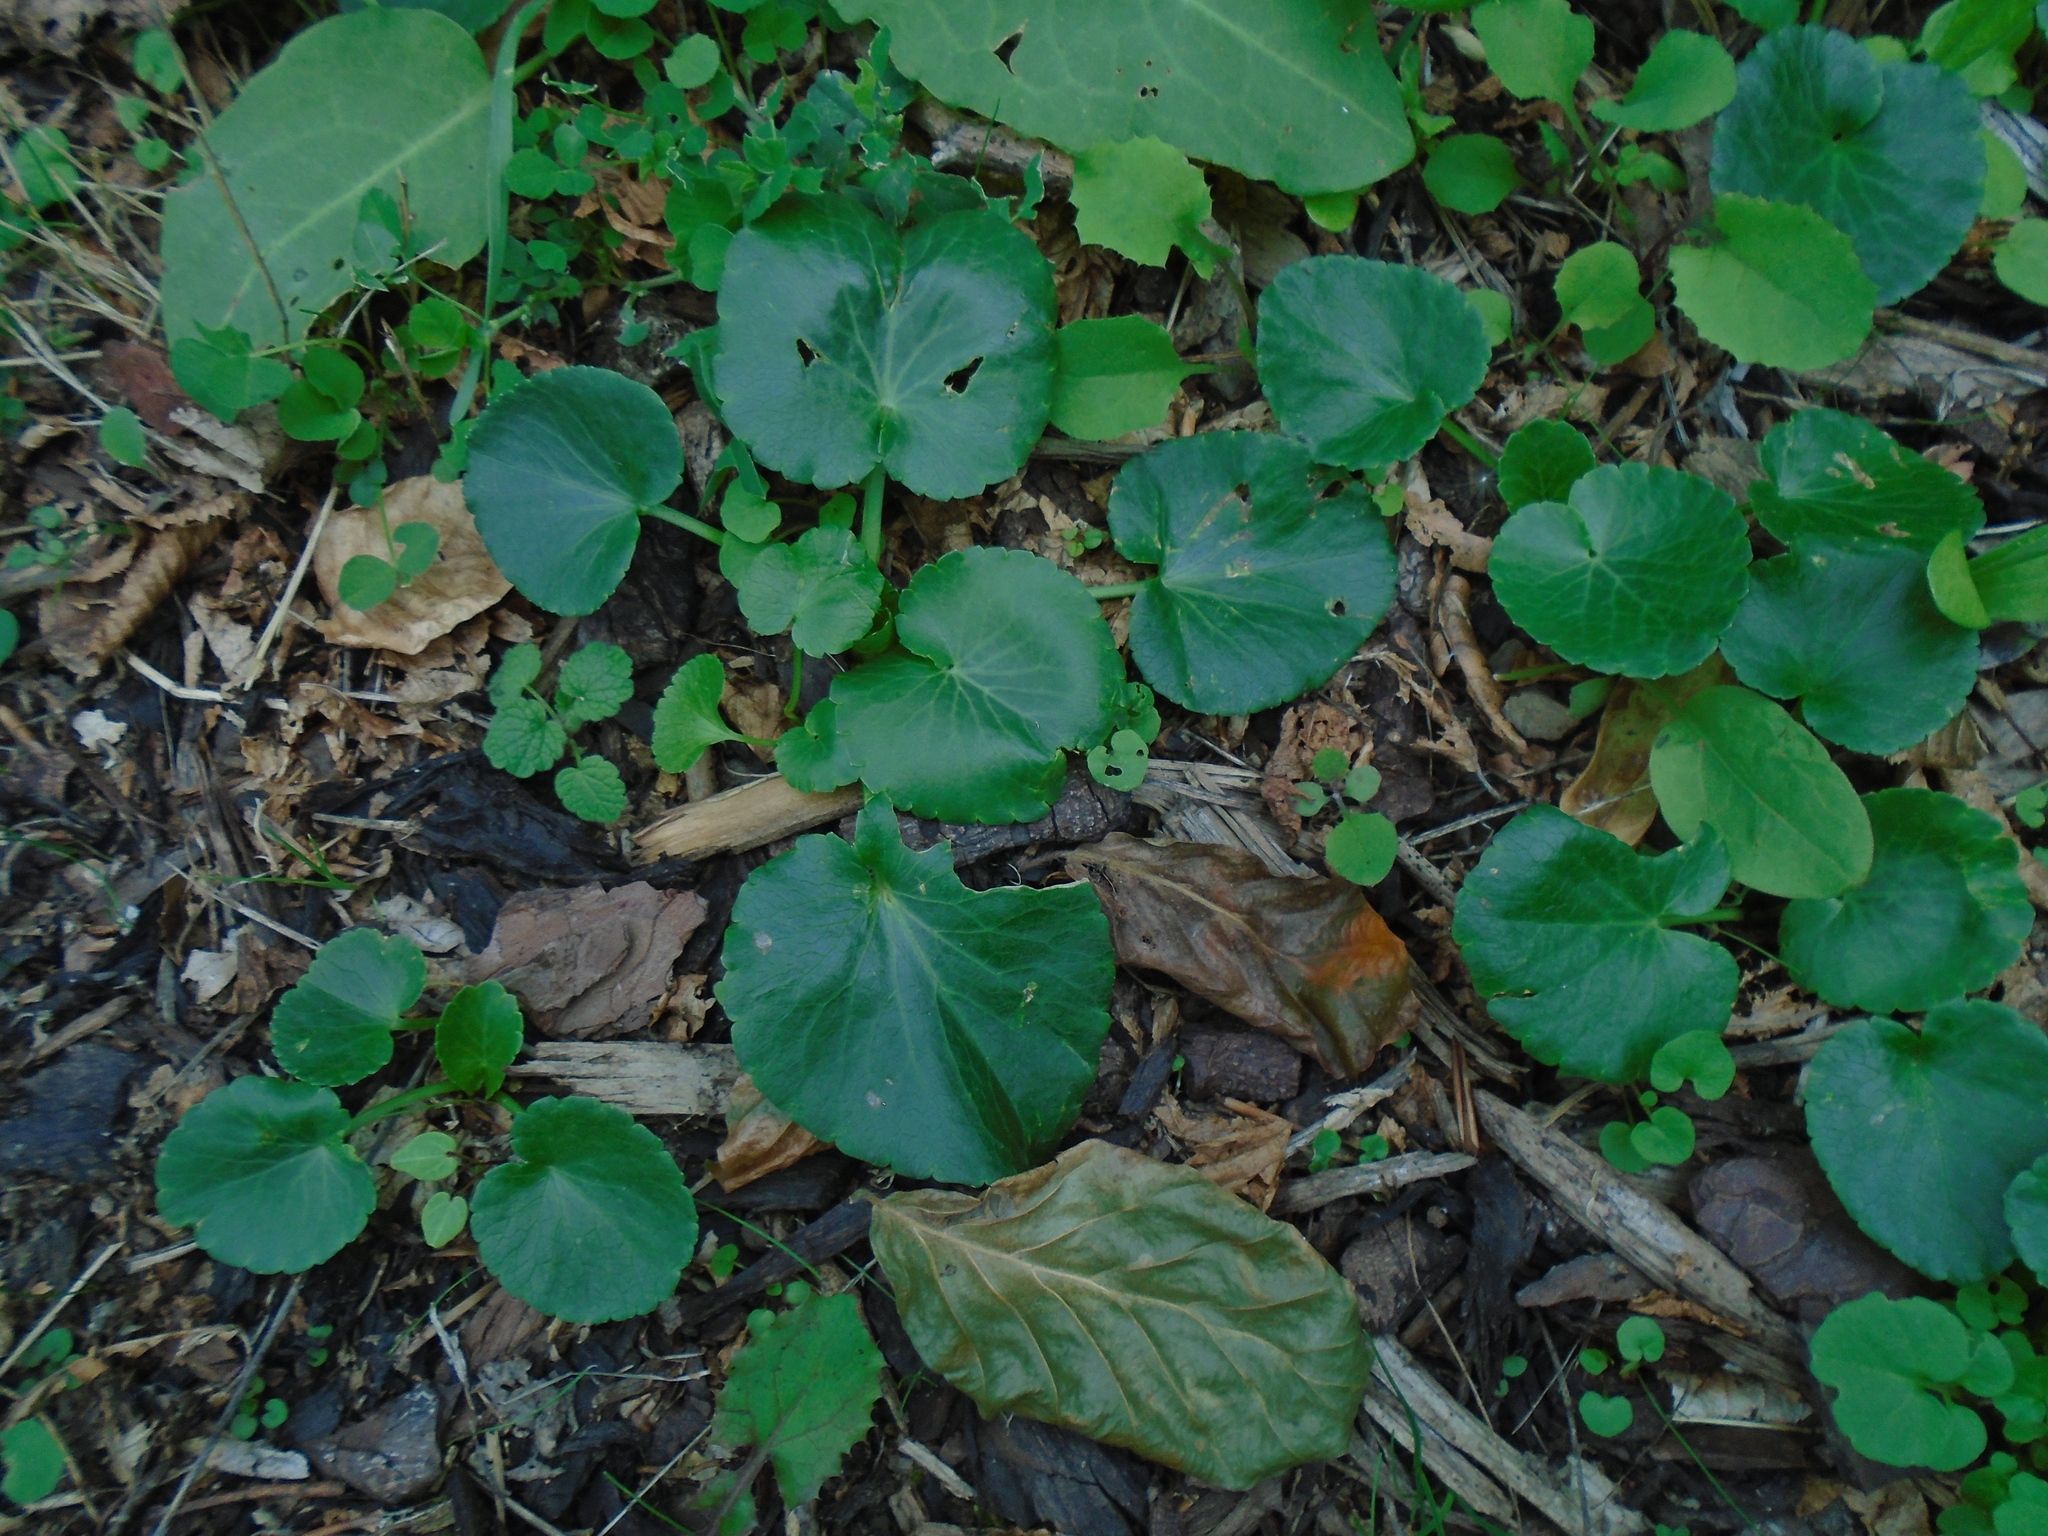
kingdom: Plantae
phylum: Tracheophyta
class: Magnoliopsida
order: Ranunculales
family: Ranunculaceae
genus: Caltha
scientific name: Caltha palustris
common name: Marsh marigold
